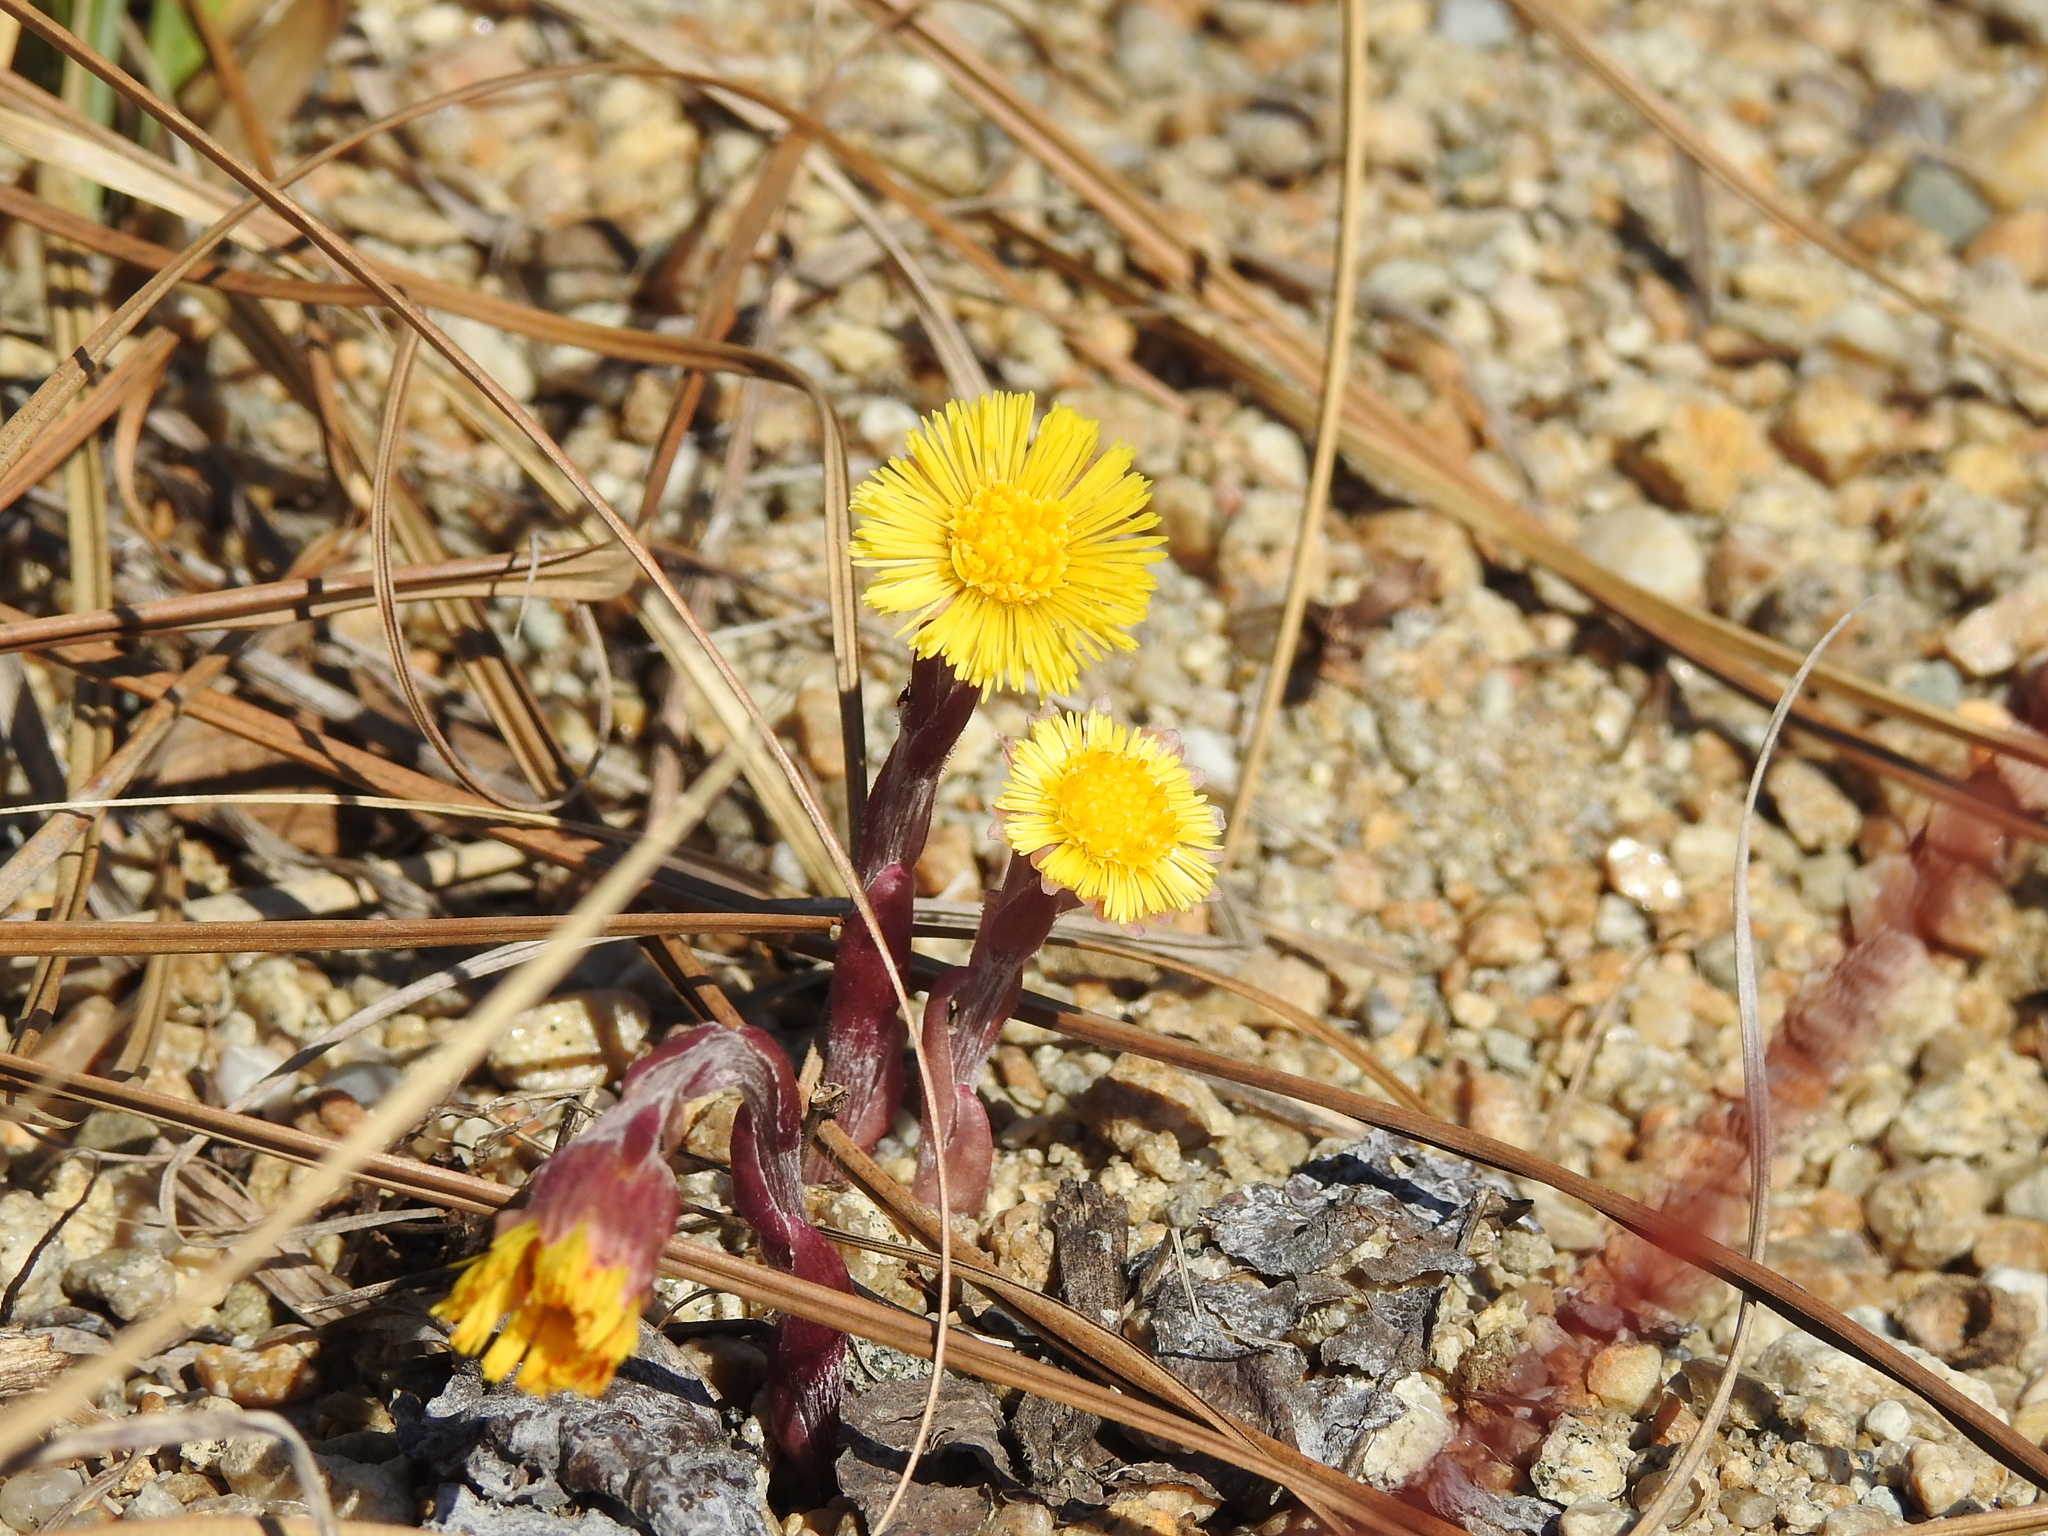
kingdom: Plantae
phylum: Tracheophyta
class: Magnoliopsida
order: Asterales
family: Asteraceae
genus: Tussilago
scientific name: Tussilago farfara
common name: Coltsfoot
